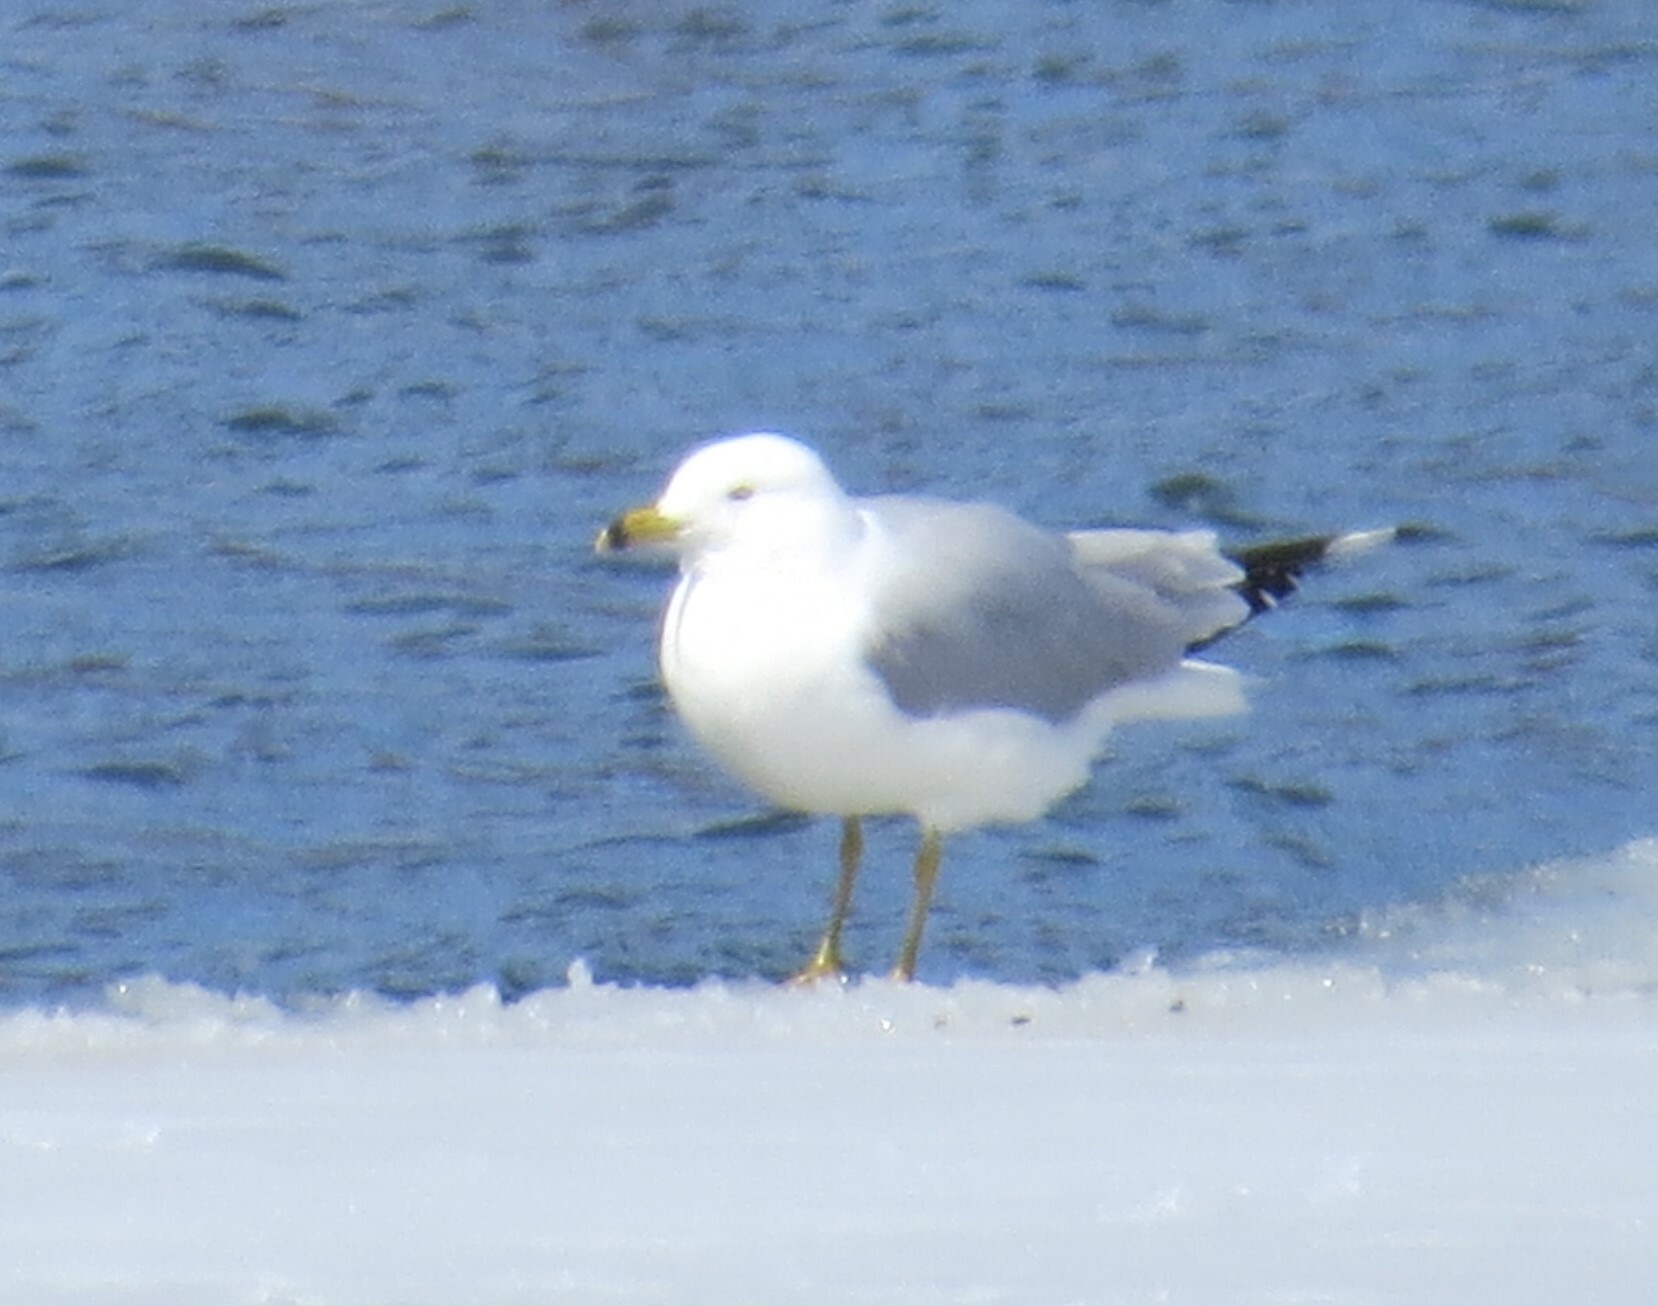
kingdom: Animalia
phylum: Chordata
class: Aves
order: Charadriiformes
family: Laridae
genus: Larus
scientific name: Larus delawarensis
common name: Ring-billed gull
